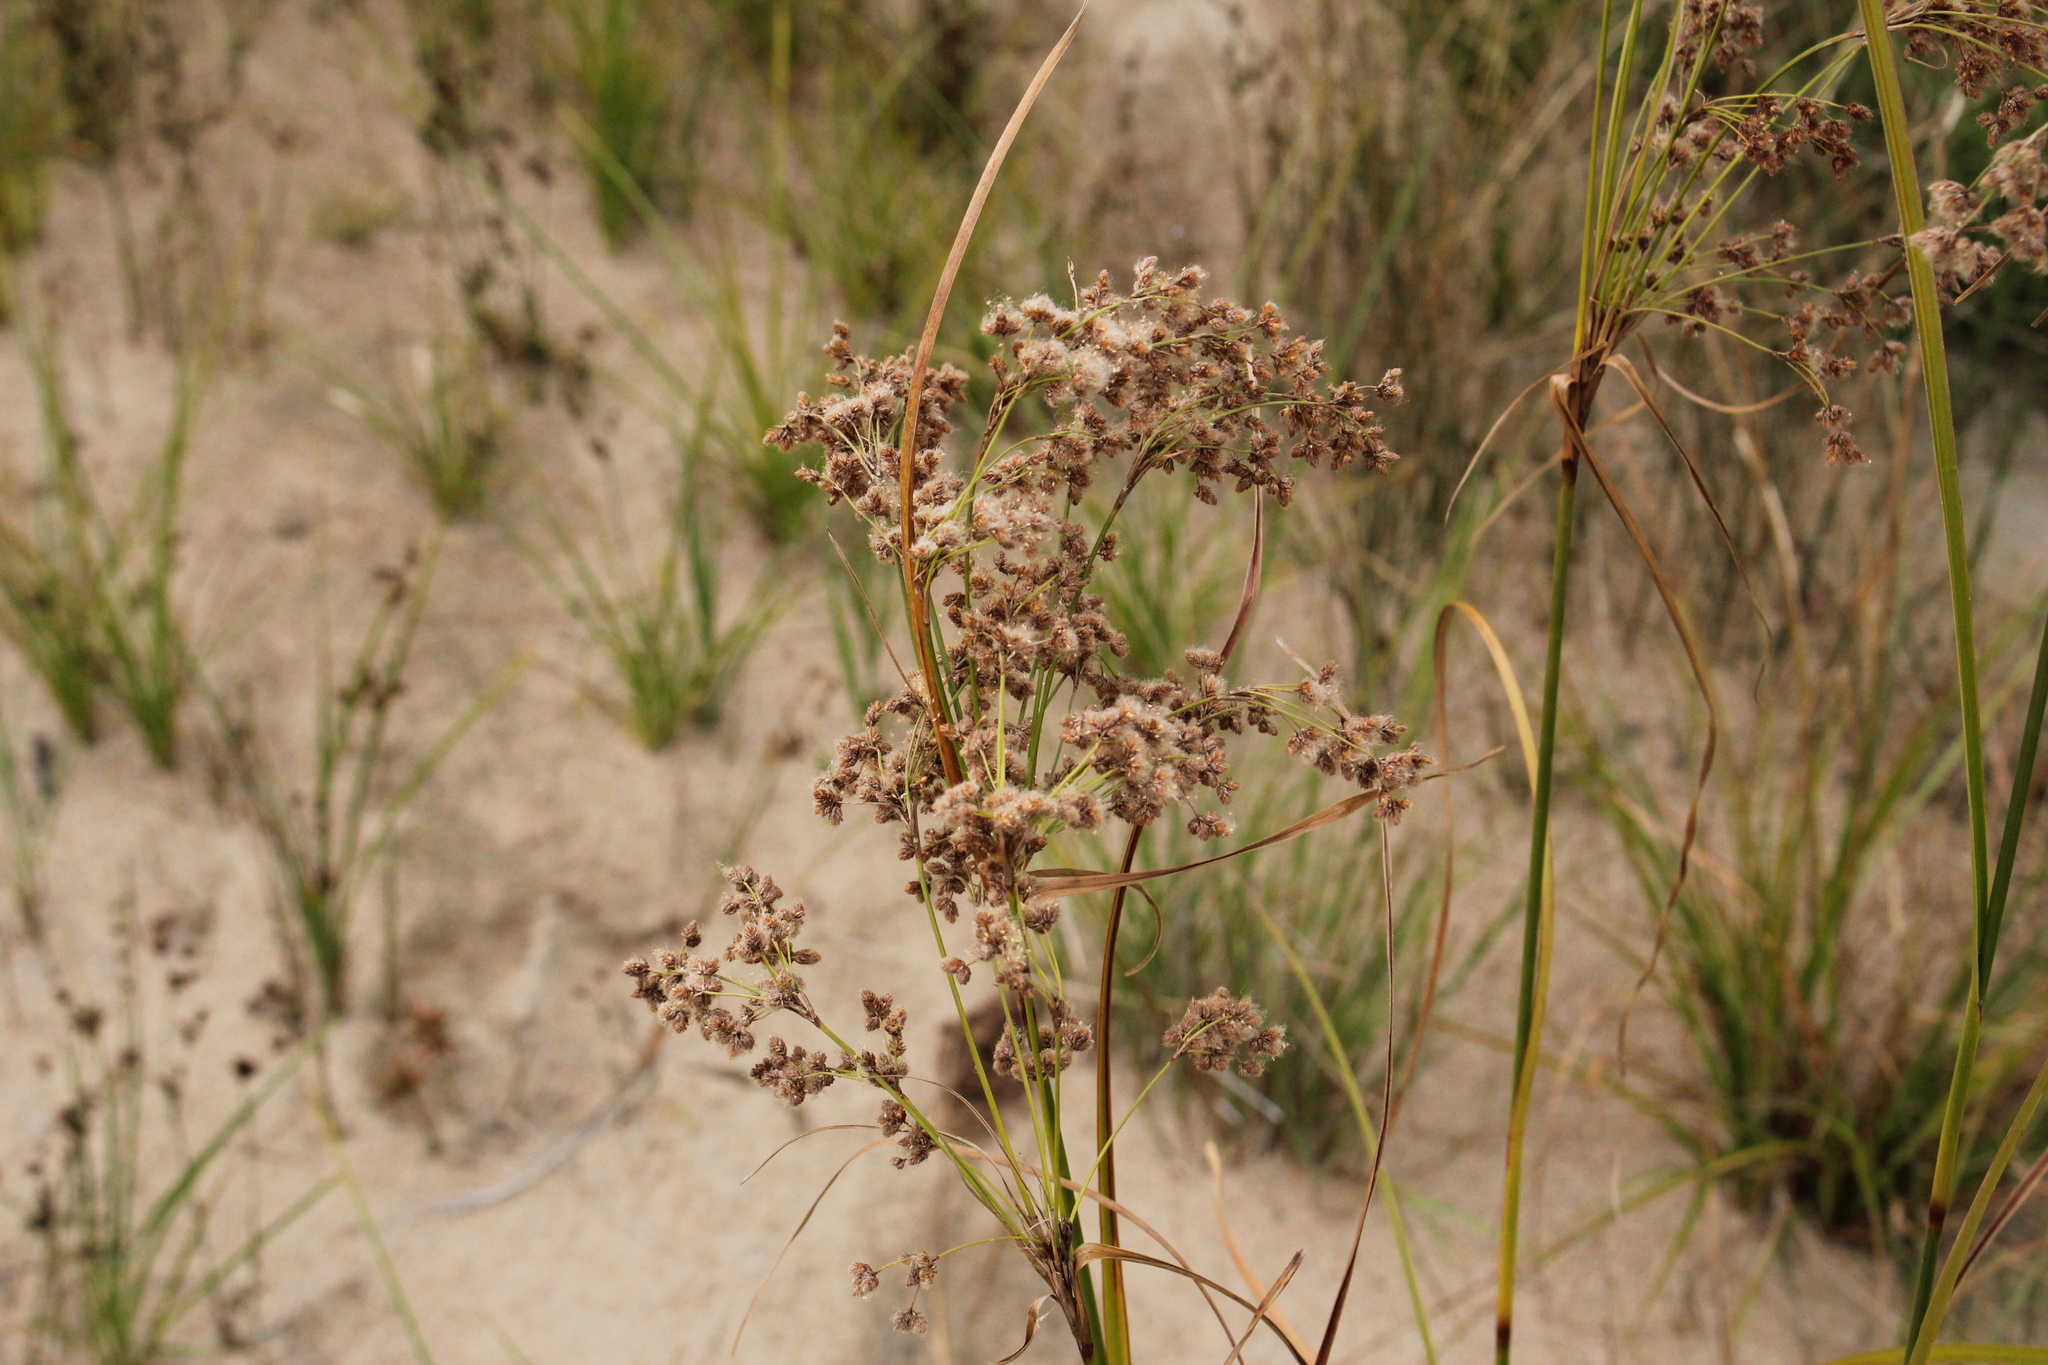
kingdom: Plantae
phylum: Tracheophyta
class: Liliopsida
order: Poales
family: Cyperaceae
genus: Scirpus
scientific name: Scirpus cyperinus
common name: Black-sheathed bulrush
